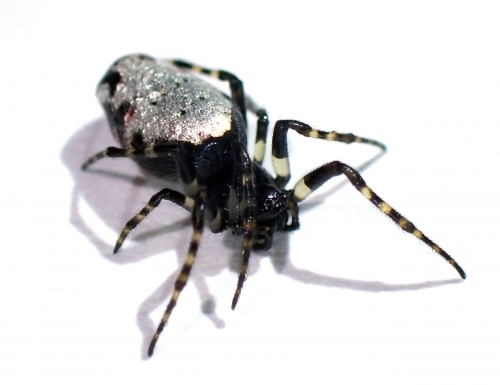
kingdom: Animalia
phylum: Arthropoda
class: Arachnida
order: Araneae
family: Araneidae
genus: Cyclosa
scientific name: Cyclosa argenteoalba
